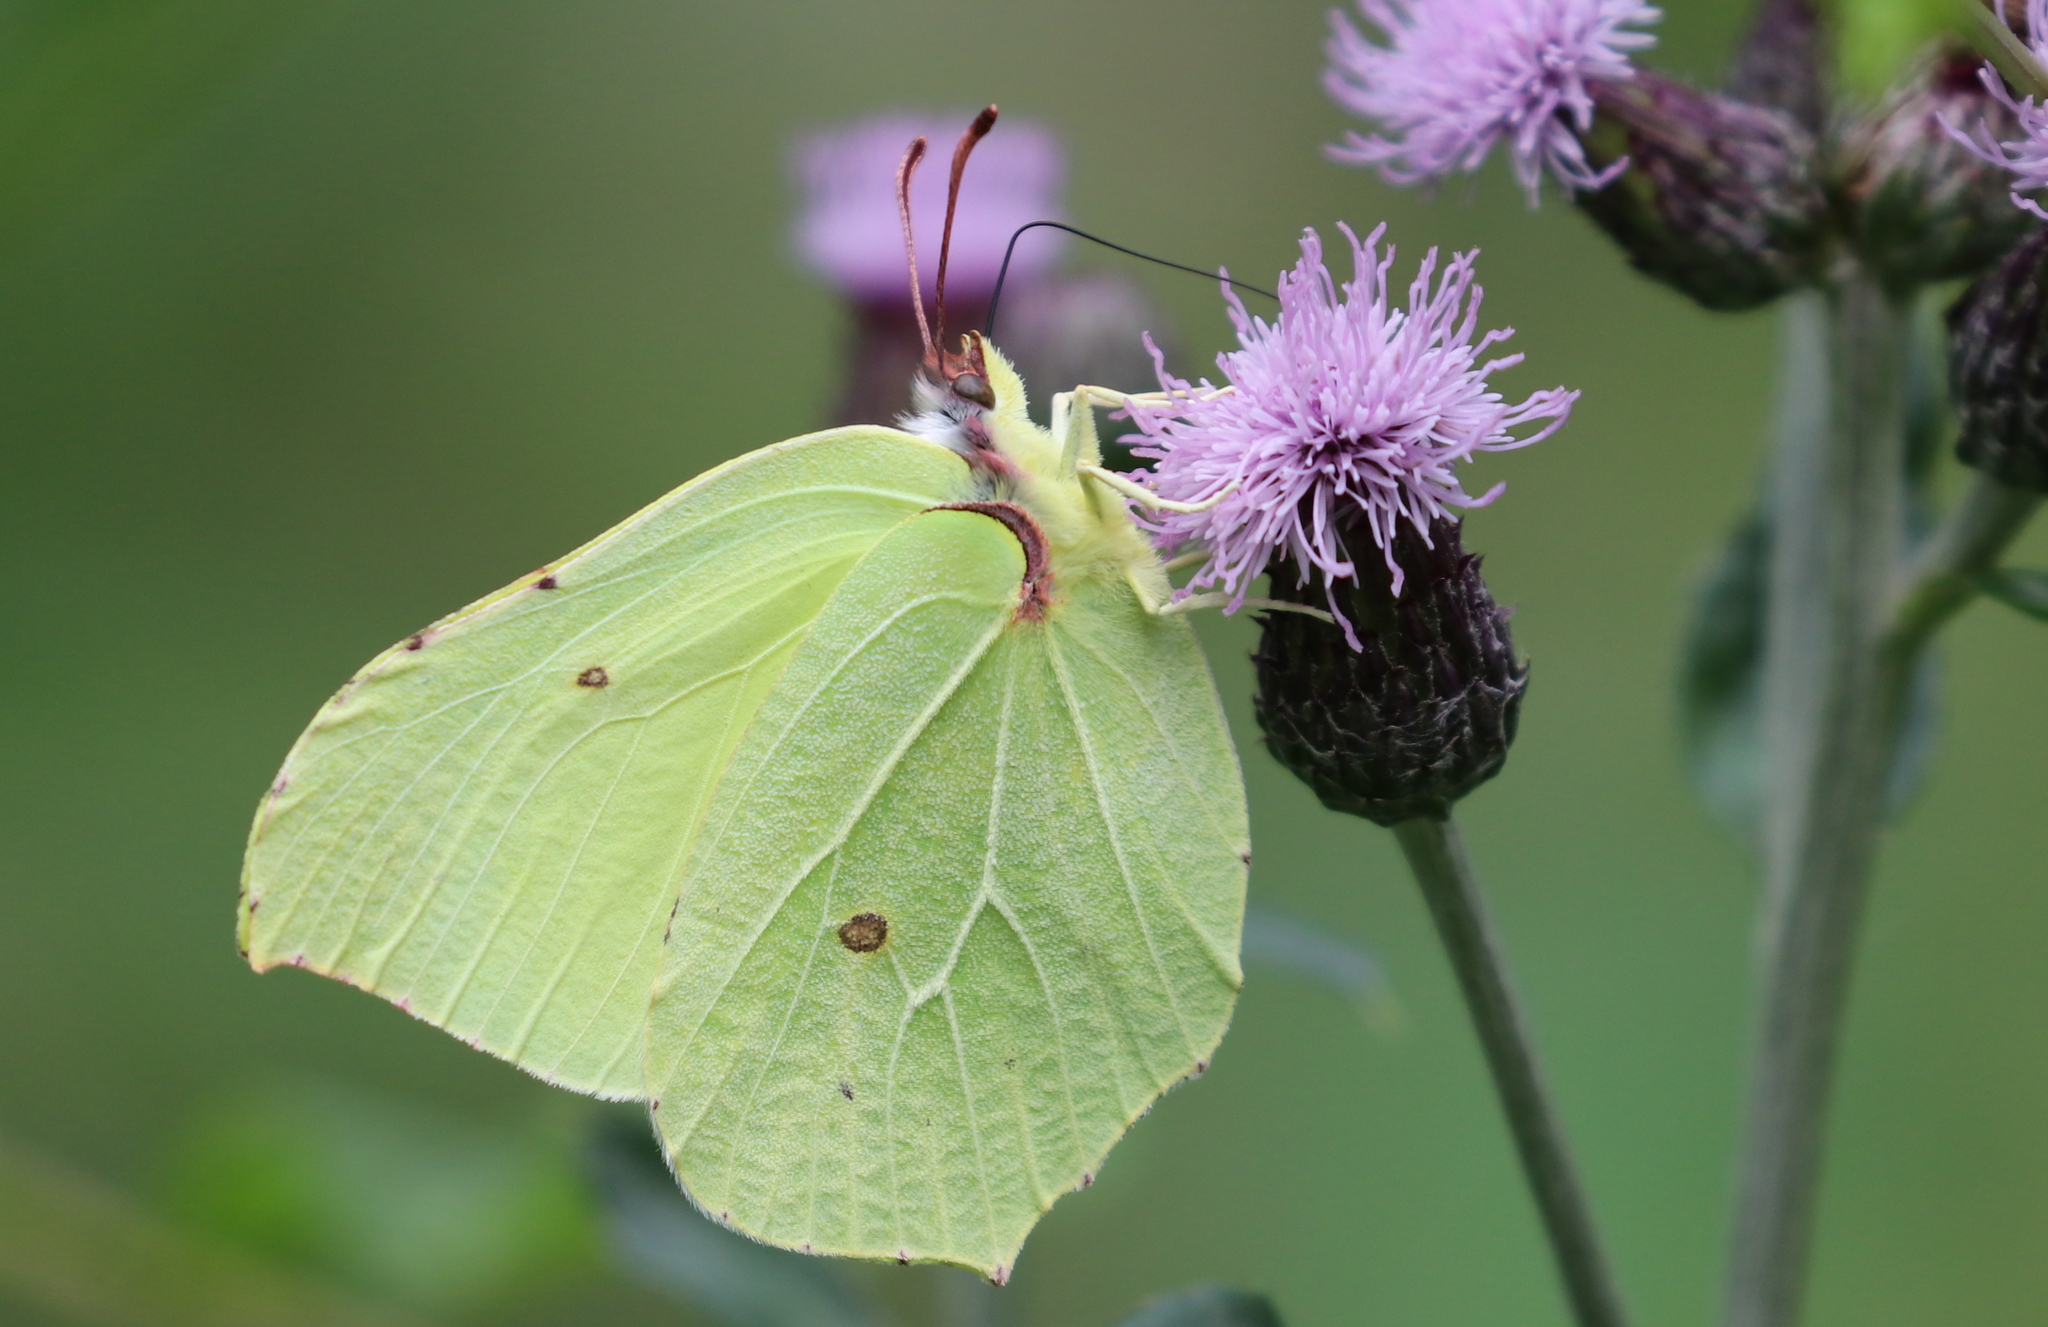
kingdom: Animalia
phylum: Arthropoda
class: Insecta
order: Lepidoptera
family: Pieridae
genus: Gonepteryx
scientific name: Gonepteryx rhamni
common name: Brimstone
